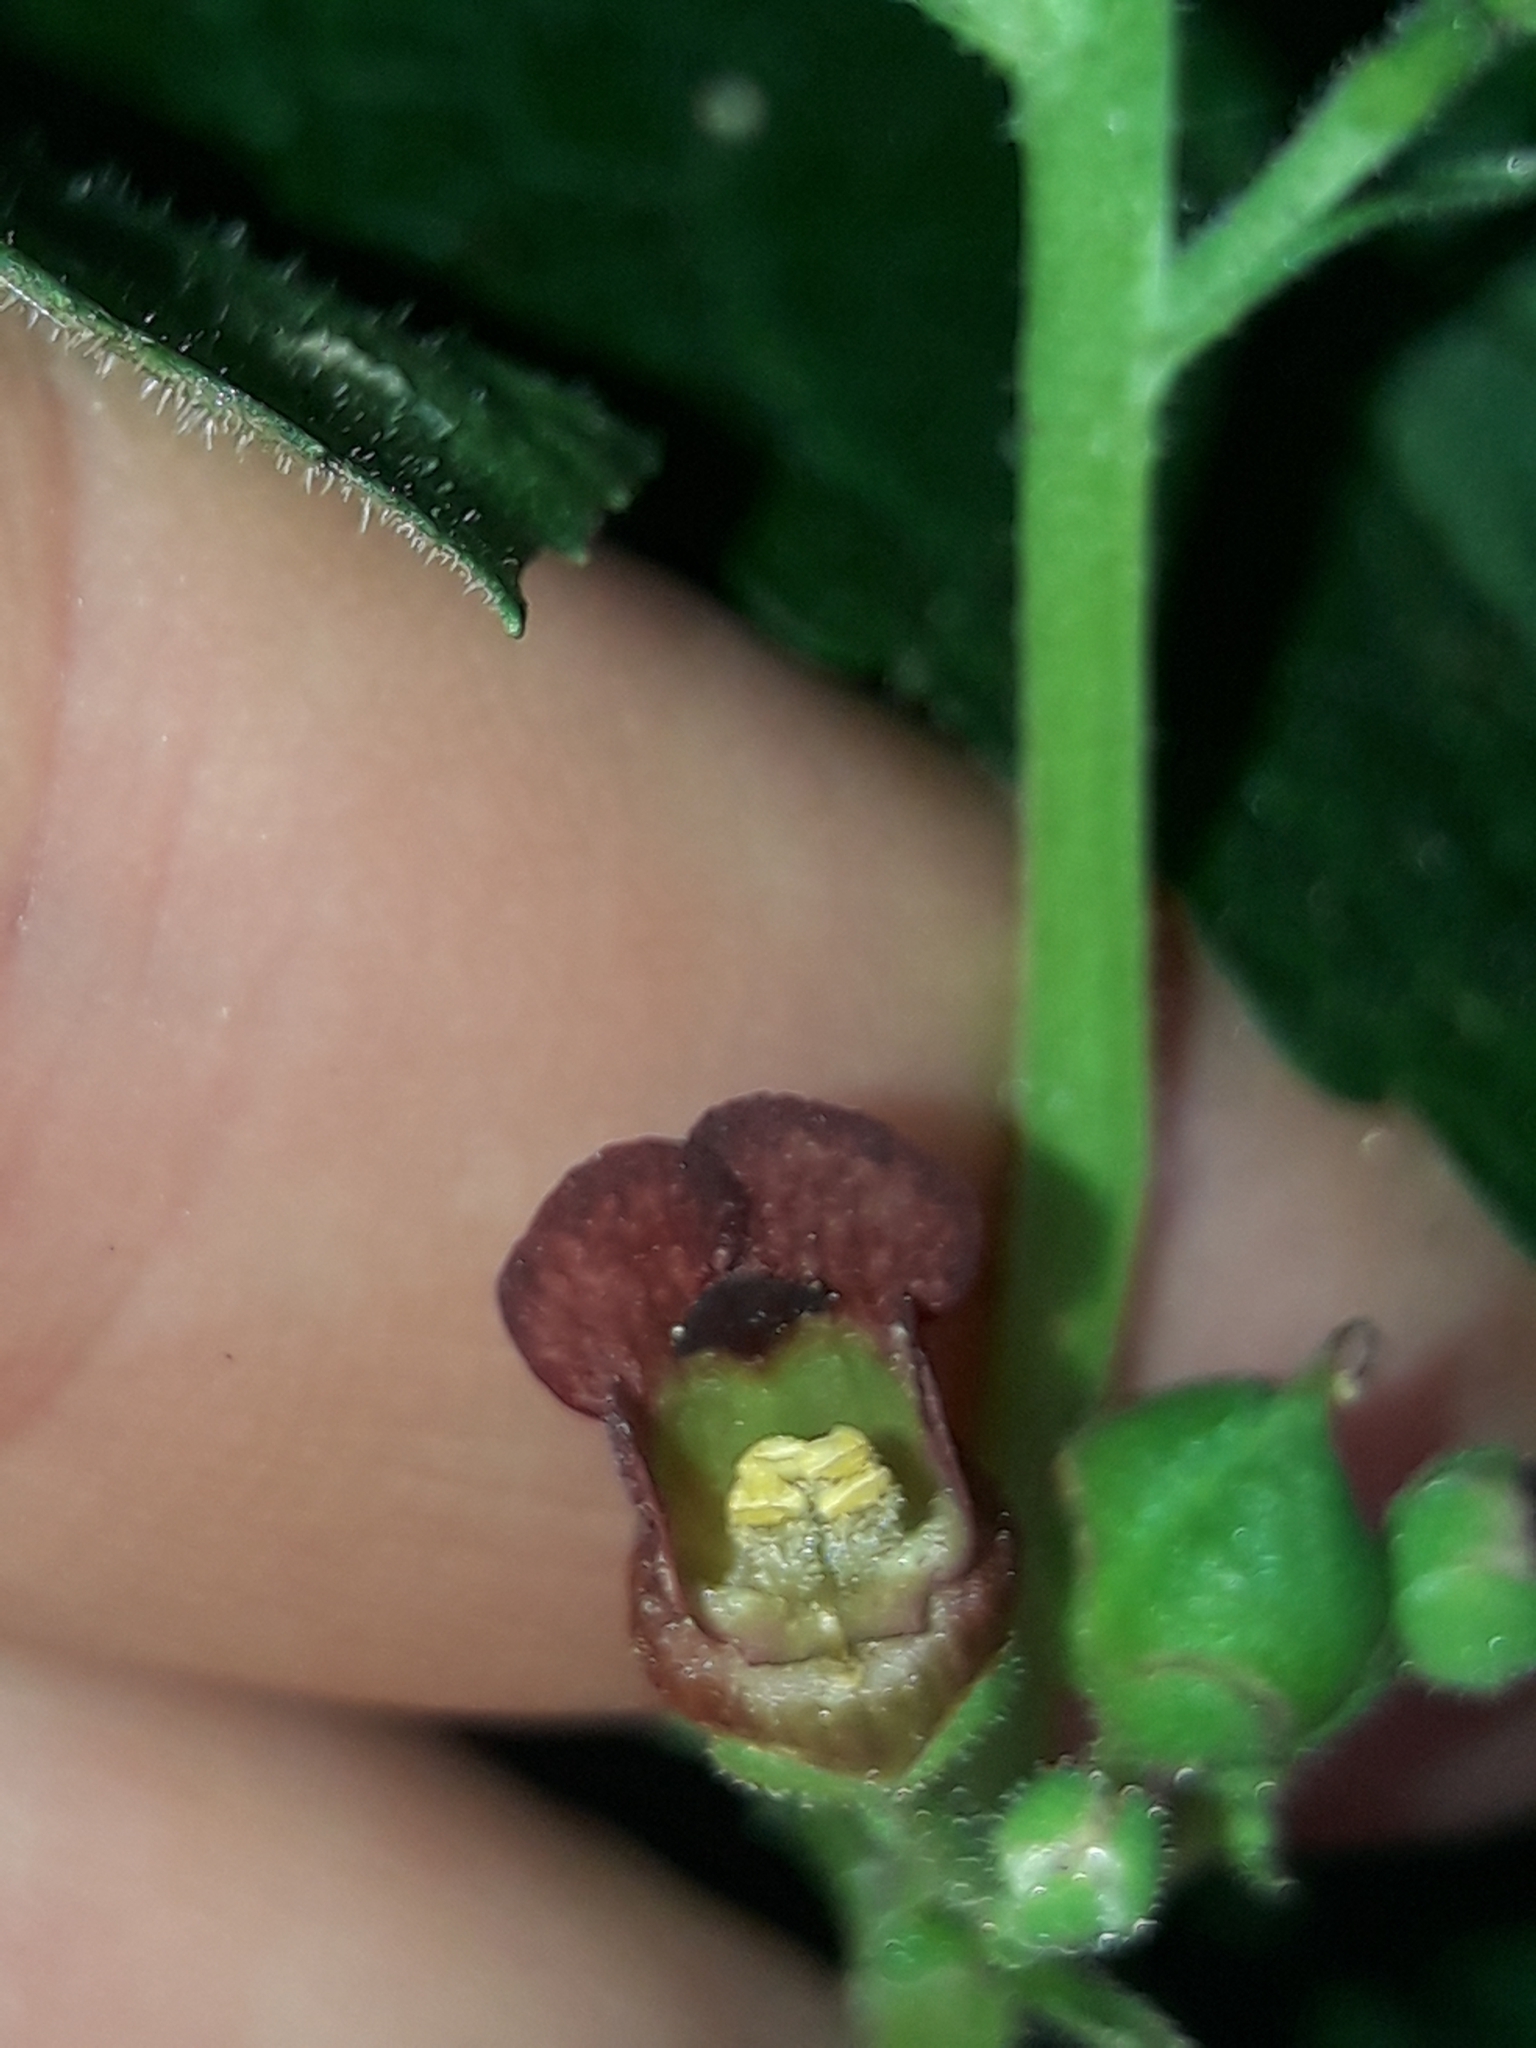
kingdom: Plantae
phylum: Tracheophyta
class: Magnoliopsida
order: Lamiales
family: Scrophulariaceae
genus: Scrophularia
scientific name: Scrophularia auriculata
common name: Water betony
